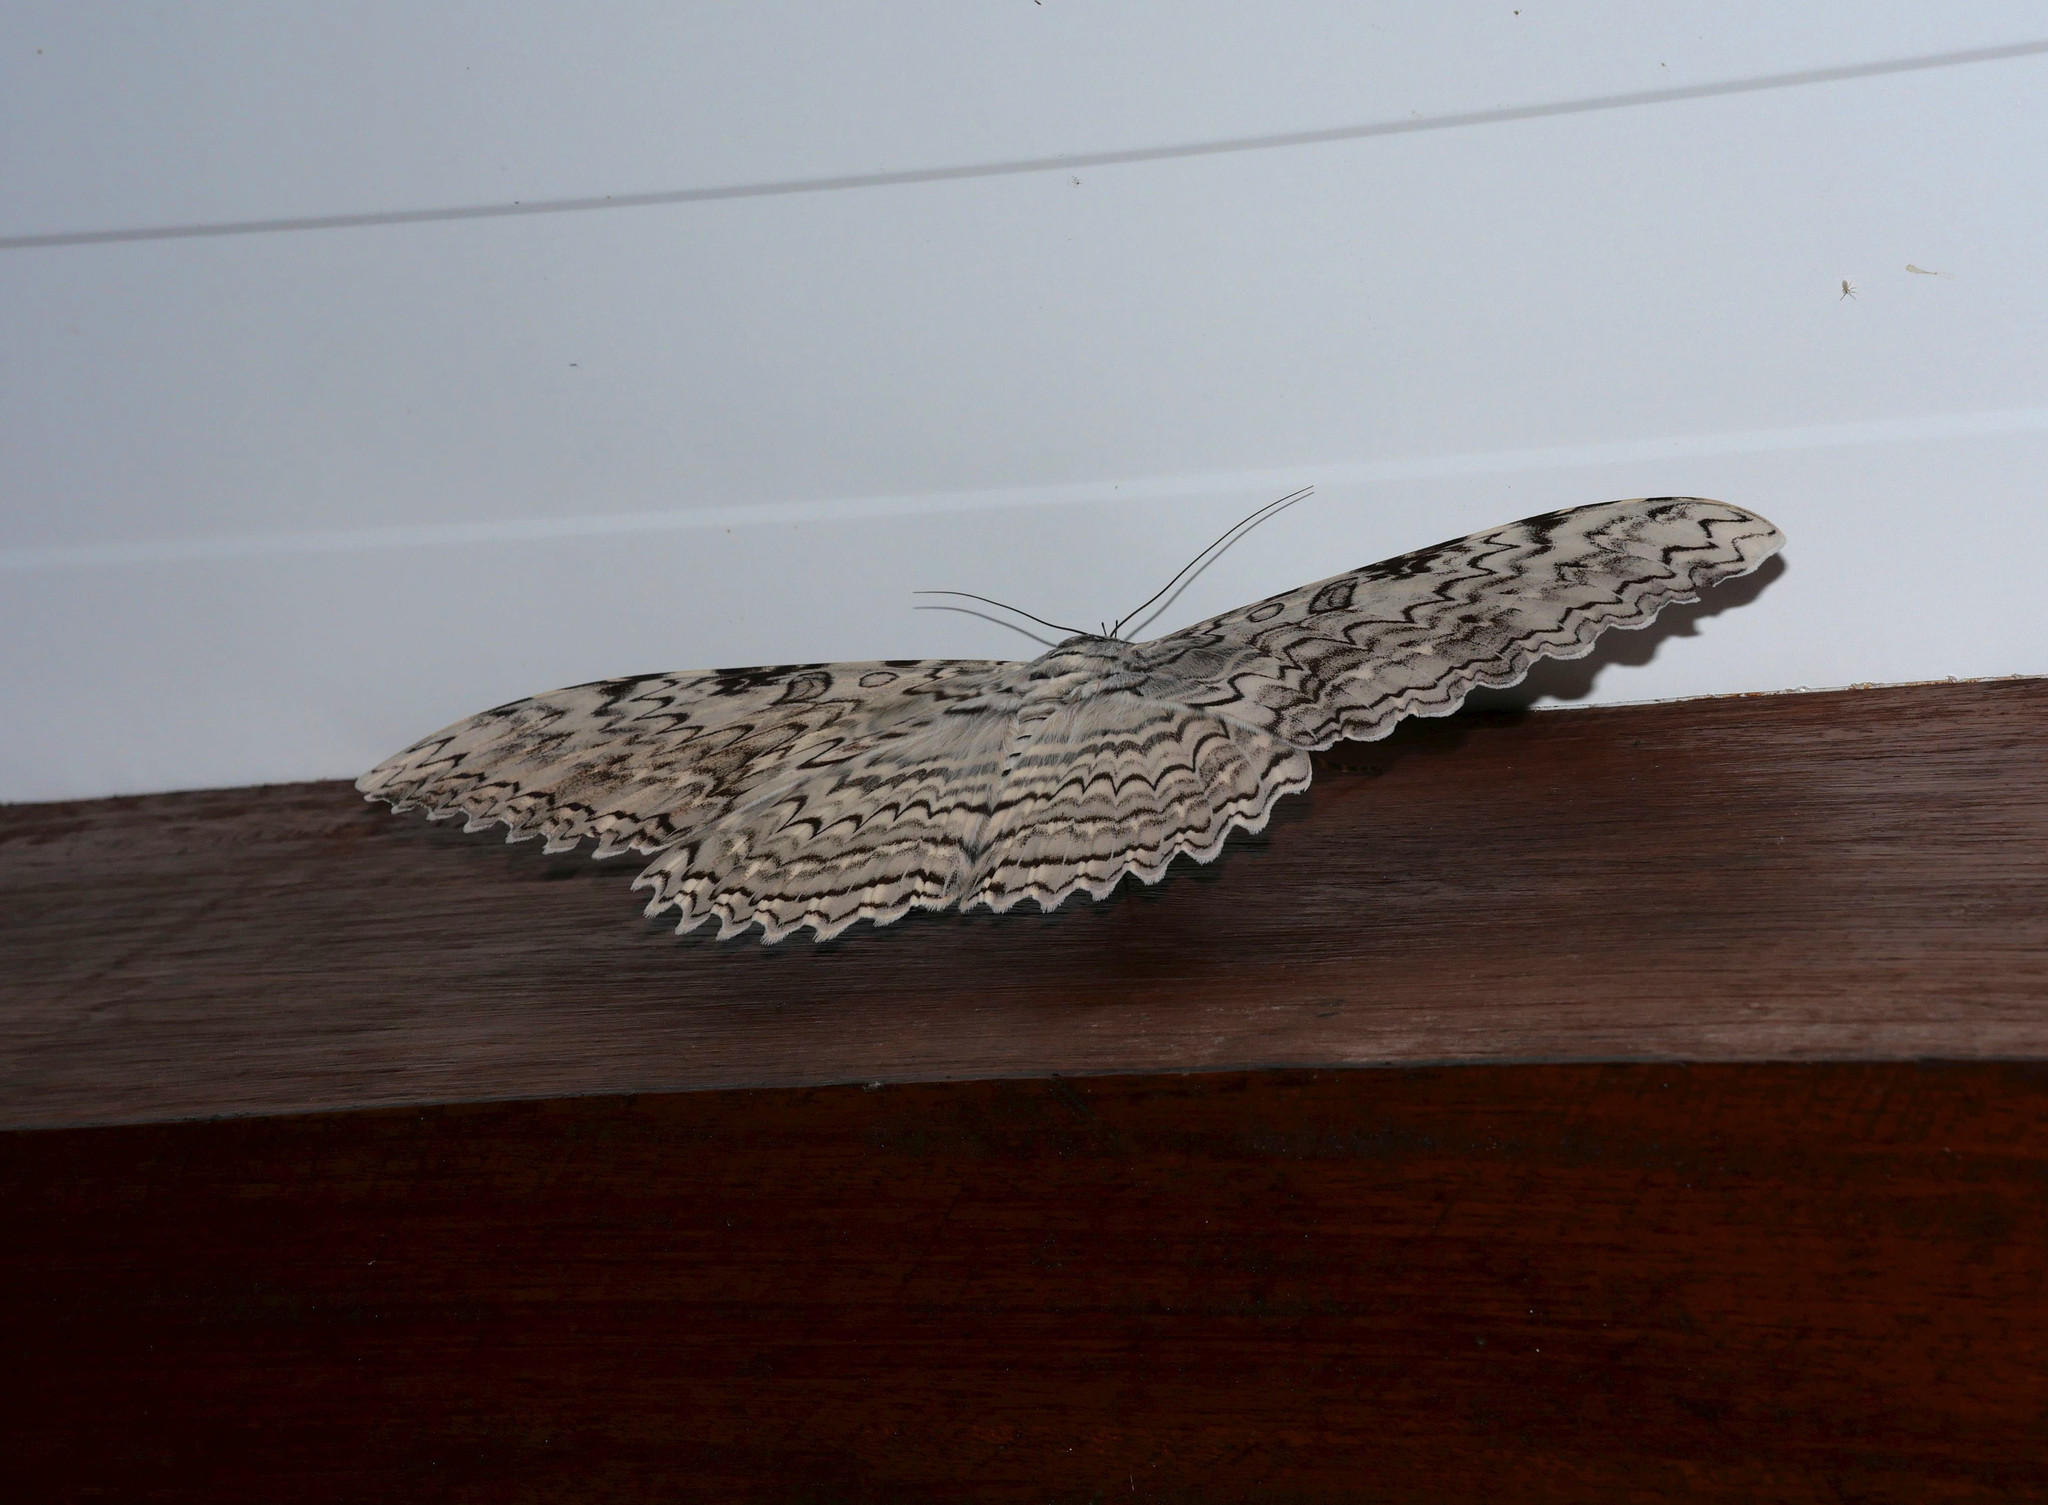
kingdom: Animalia
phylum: Arthropoda
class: Insecta
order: Lepidoptera
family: Erebidae
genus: Thysania
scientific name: Thysania agrippina
